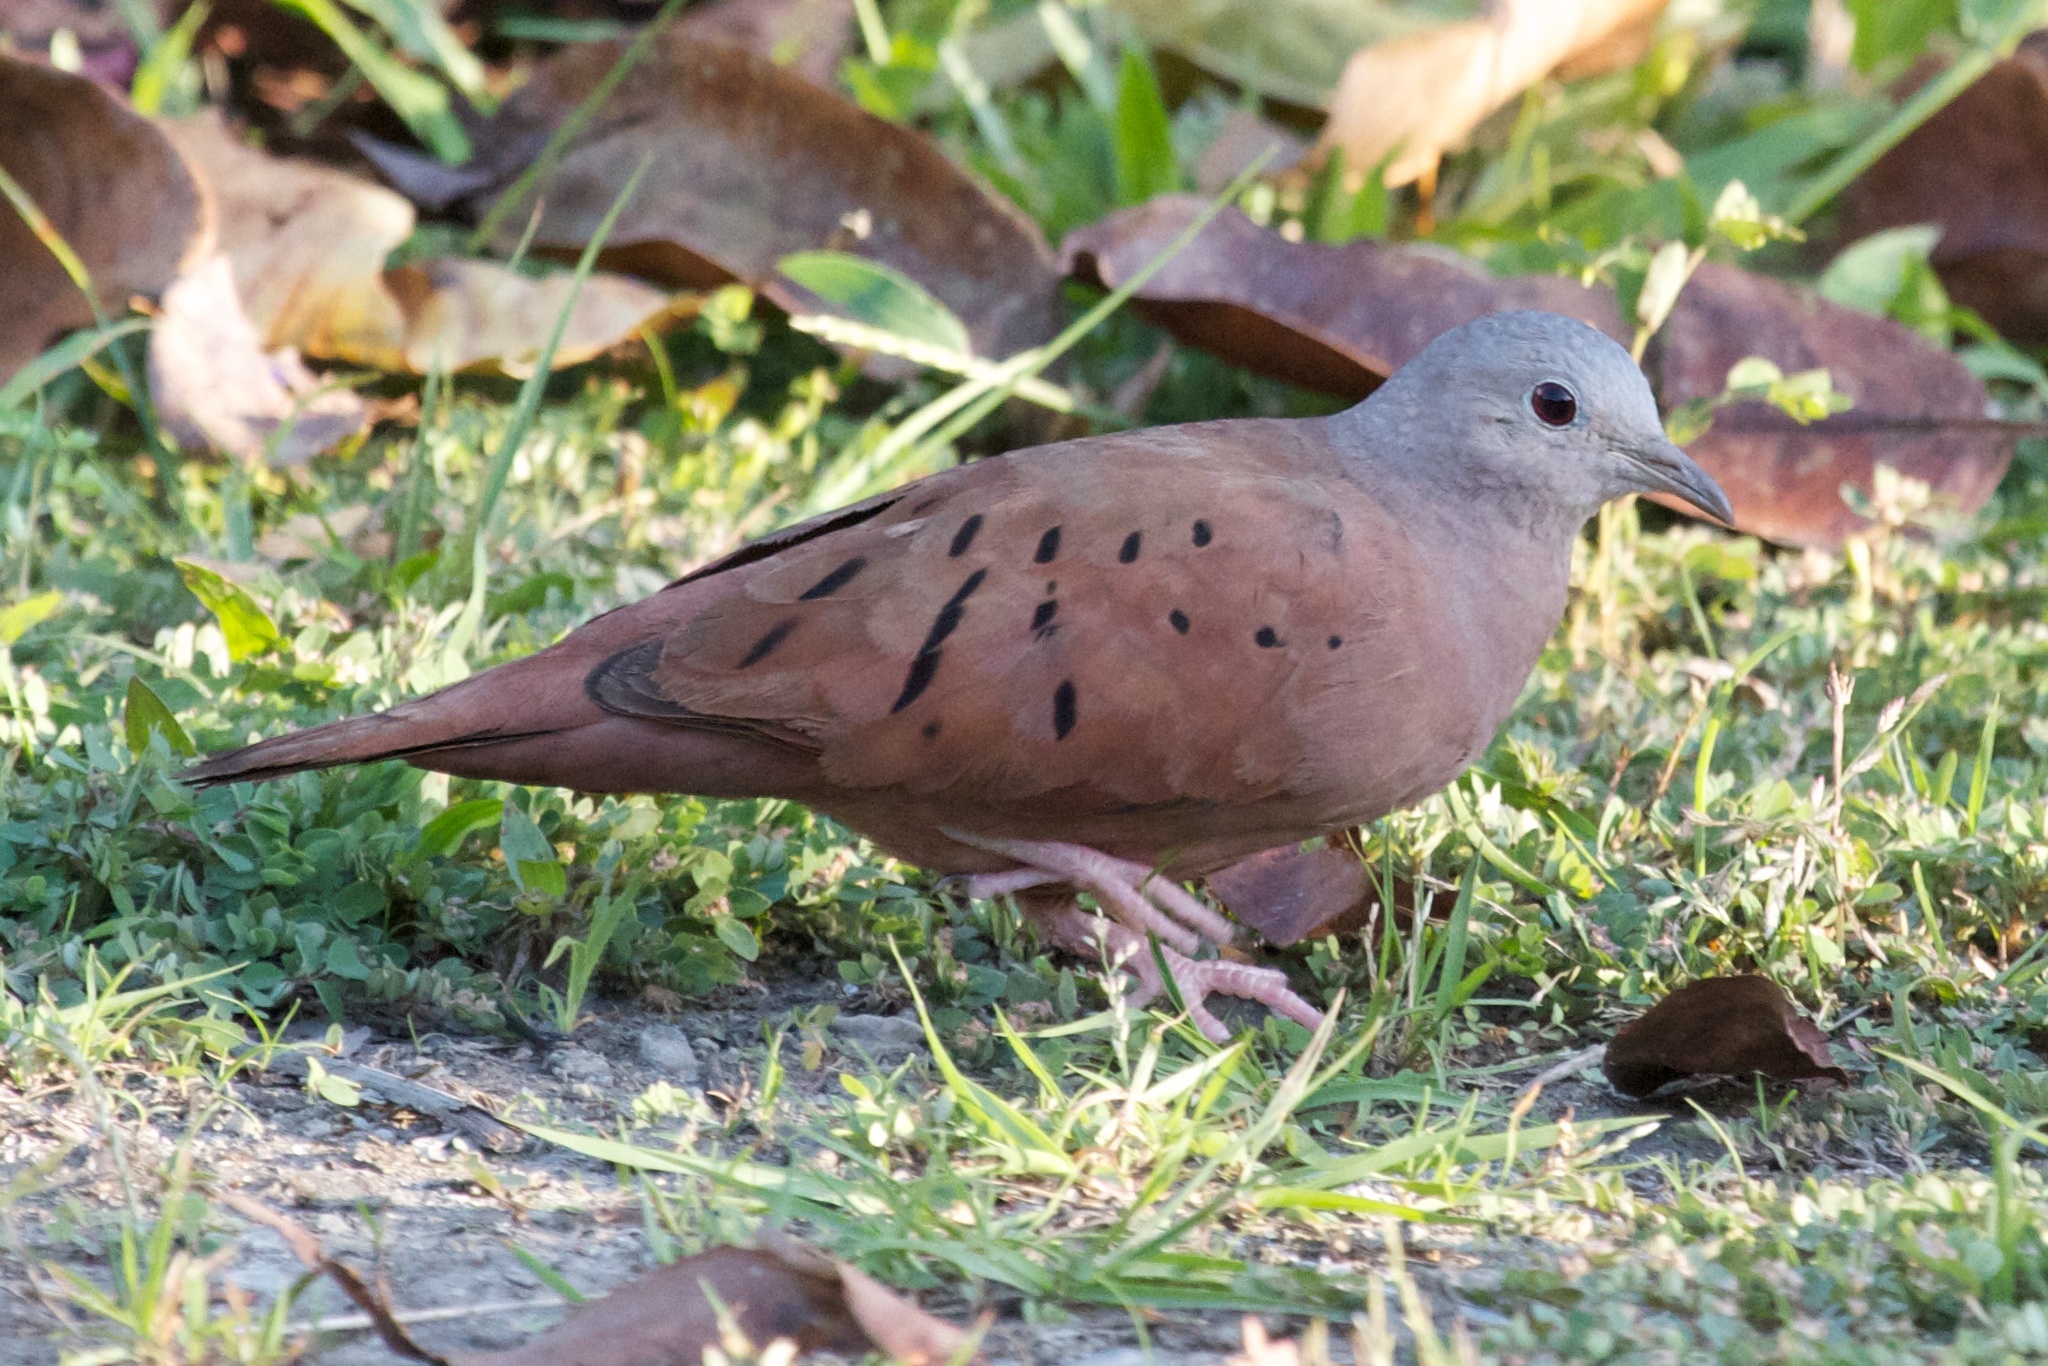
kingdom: Animalia
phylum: Chordata
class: Aves
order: Columbiformes
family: Columbidae
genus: Columbina
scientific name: Columbina talpacoti
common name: Ruddy ground dove
